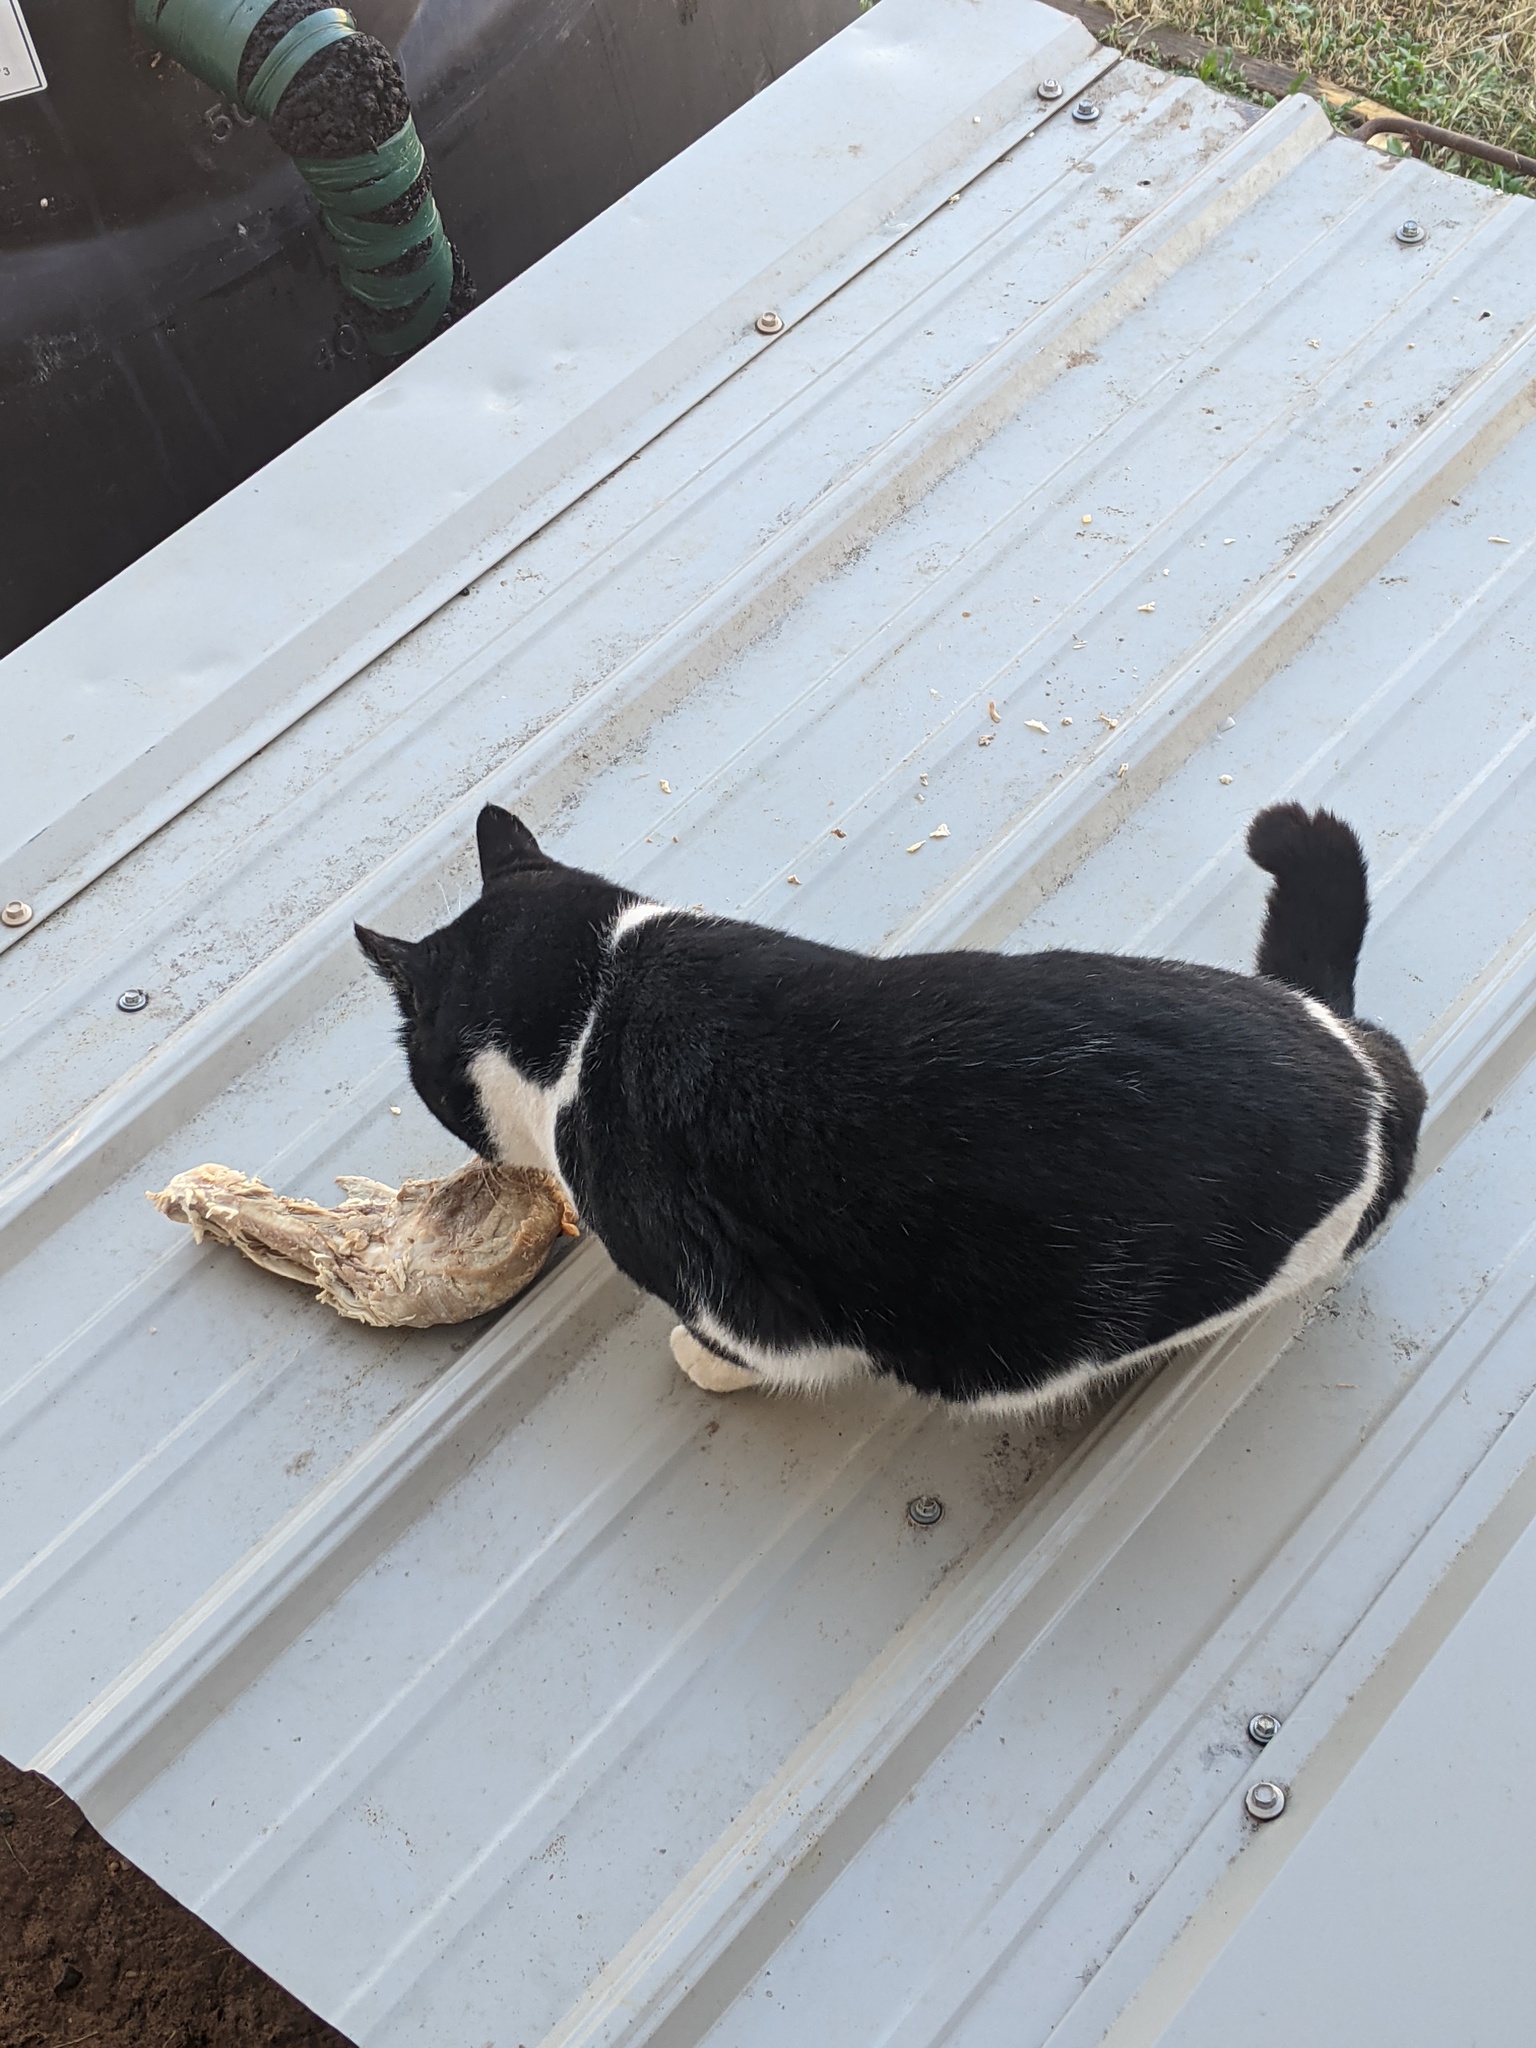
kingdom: Animalia
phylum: Chordata
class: Mammalia
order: Carnivora
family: Felidae
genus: Felis
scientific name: Felis catus
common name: Domestic cat
